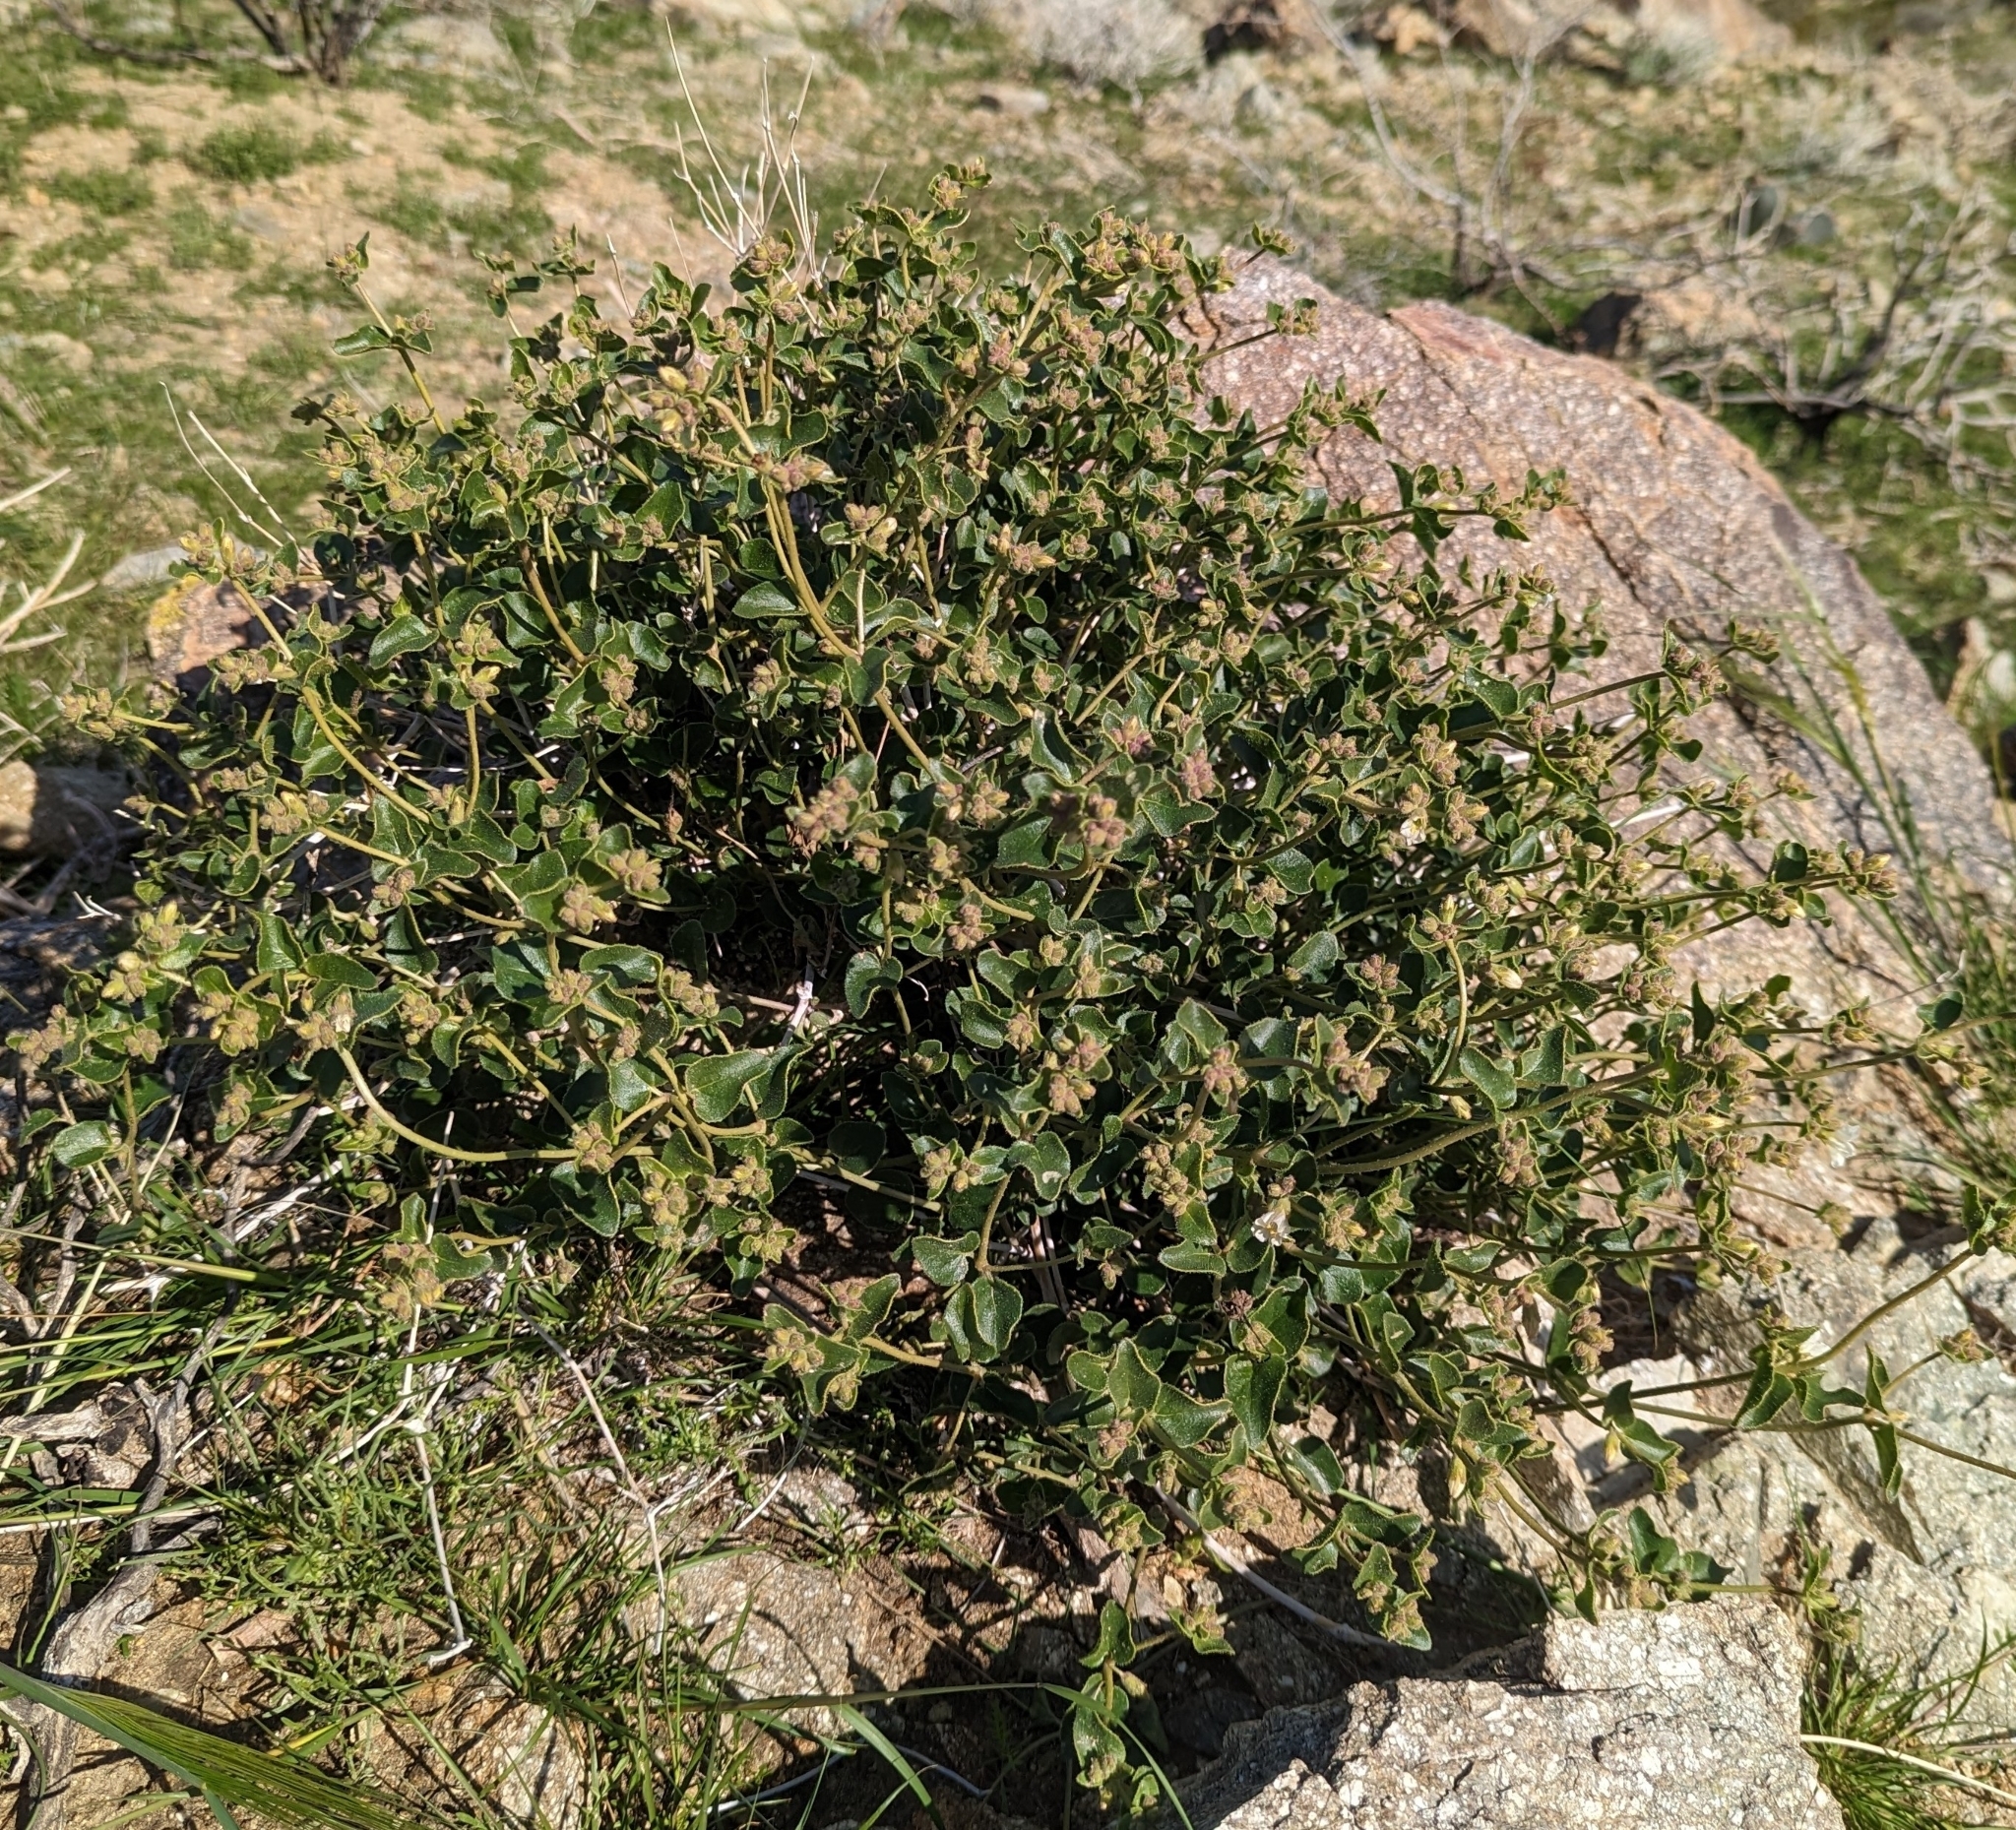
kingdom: Plantae
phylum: Tracheophyta
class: Magnoliopsida
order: Caryophyllales
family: Nyctaginaceae
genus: Mirabilis
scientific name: Mirabilis laevis
